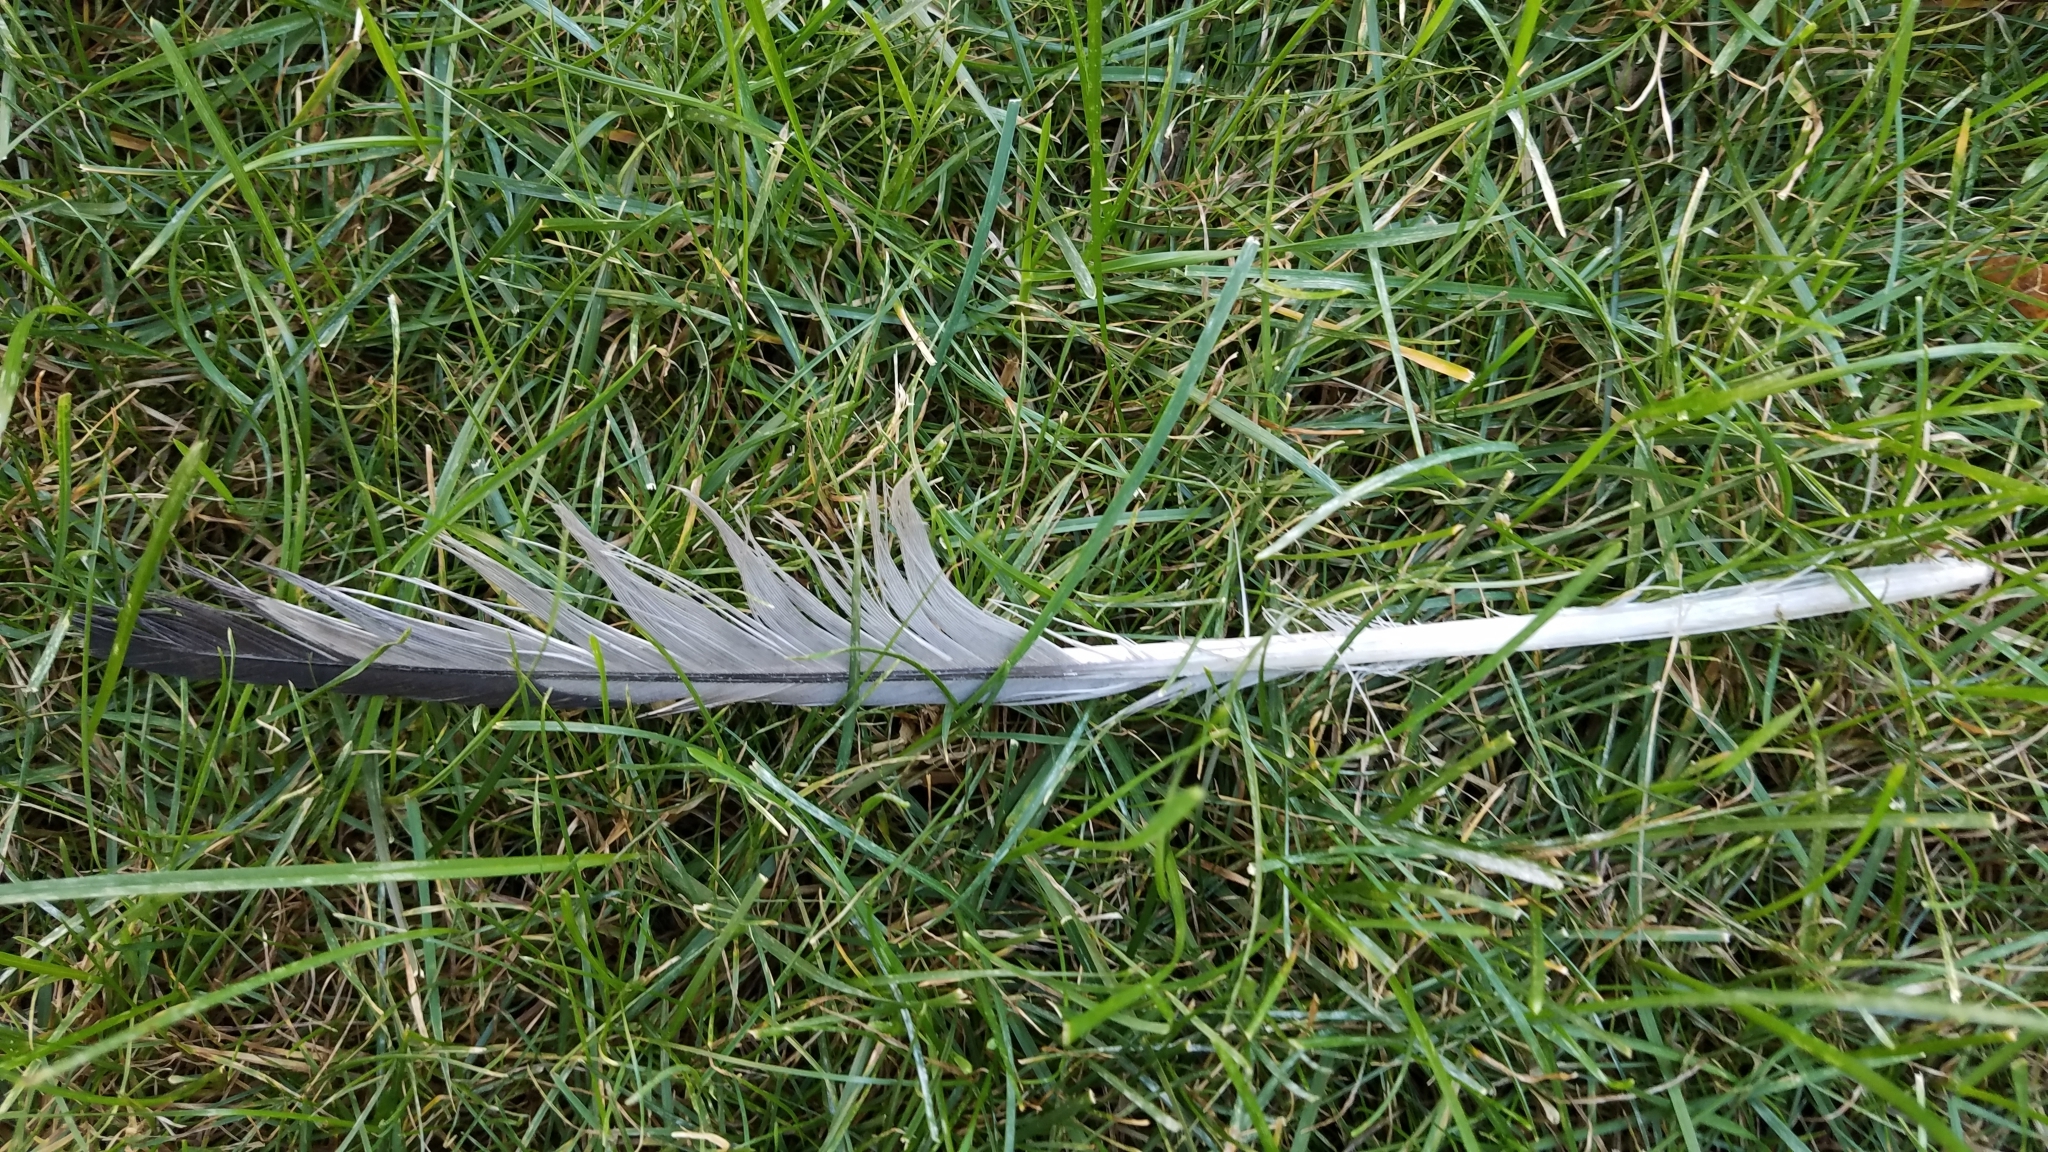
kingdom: Animalia
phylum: Chordata
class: Aves
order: Charadriiformes
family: Laridae
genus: Larus
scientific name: Larus delawarensis
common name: Ring-billed gull
